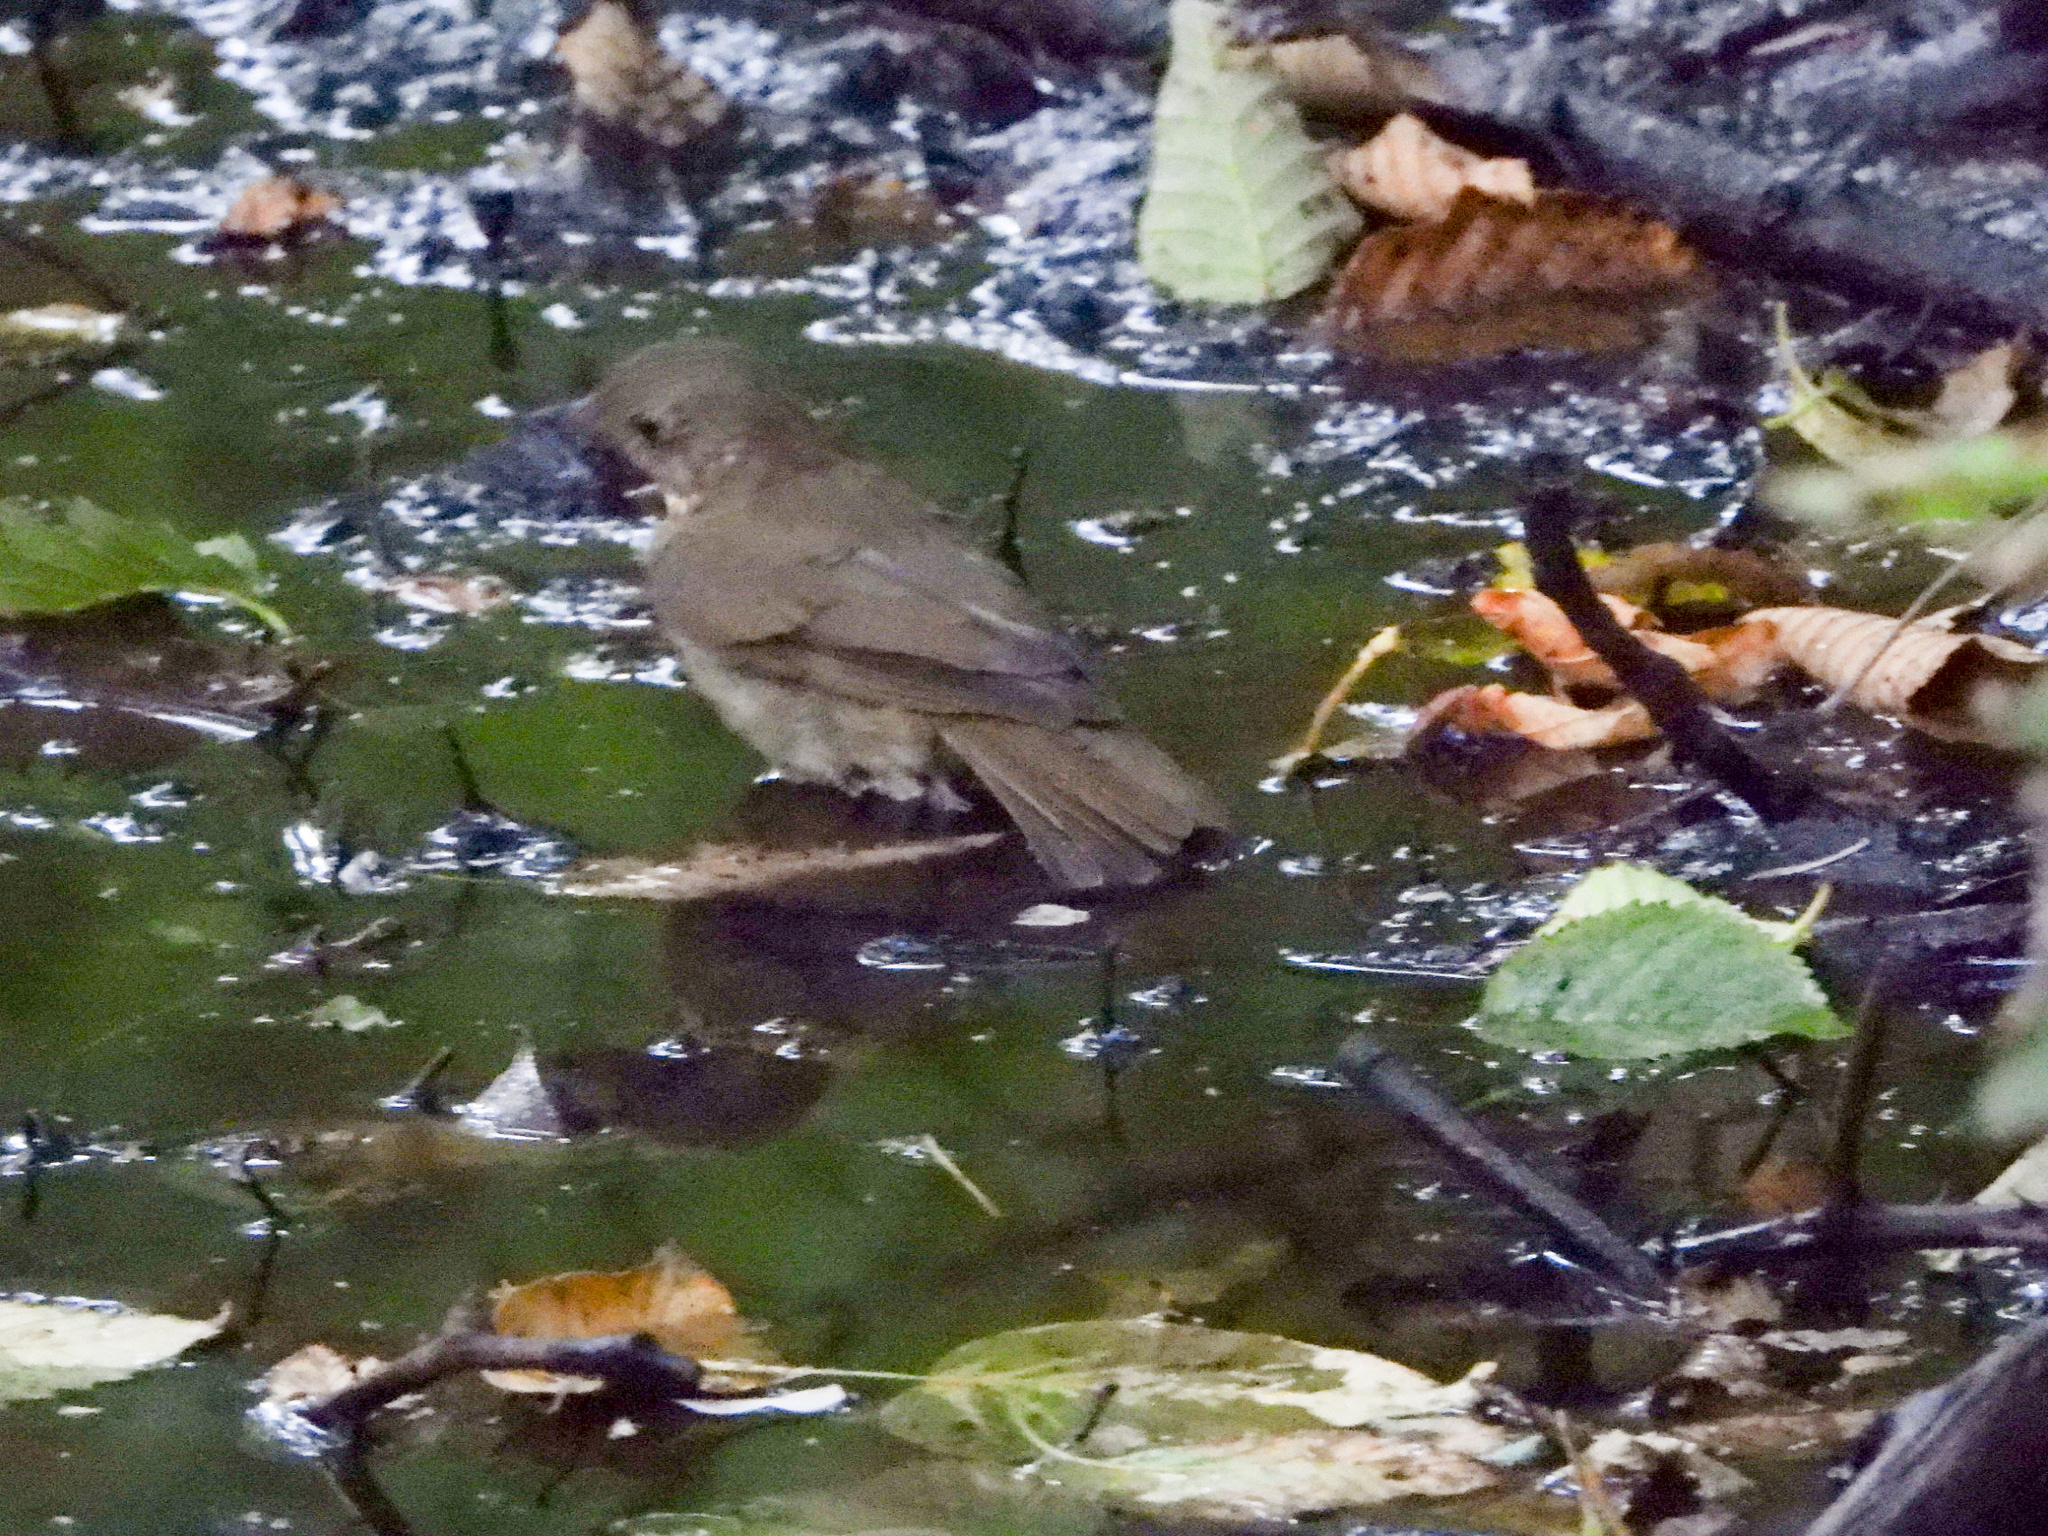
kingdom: Animalia
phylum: Chordata
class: Aves
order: Passeriformes
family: Turdidae
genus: Catharus
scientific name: Catharus ustulatus
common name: Swainson's thrush
